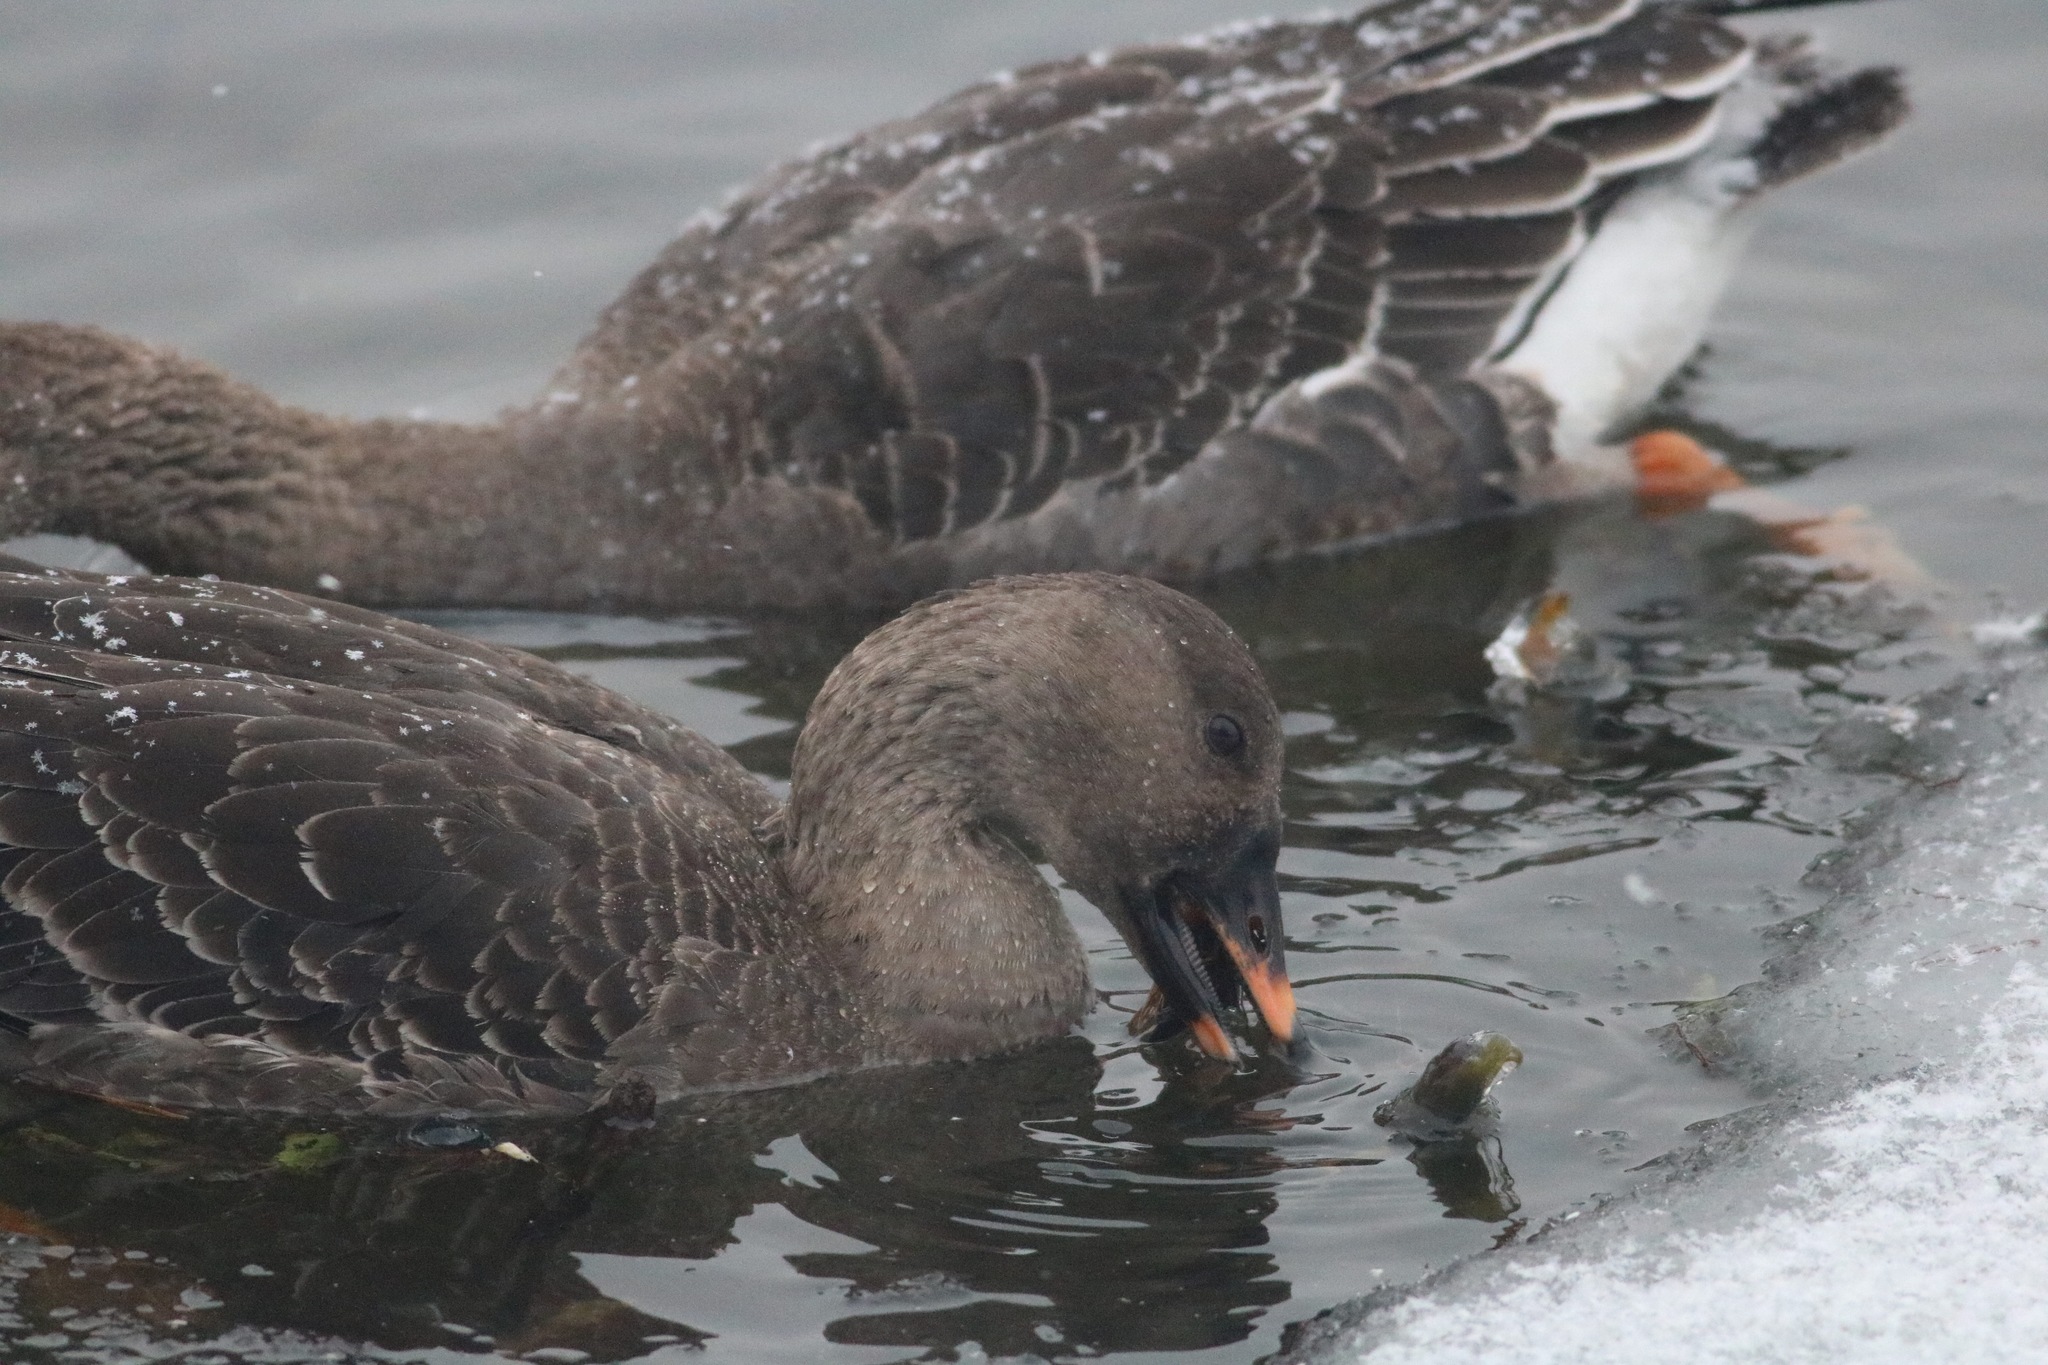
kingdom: Animalia
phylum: Chordata
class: Aves
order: Anseriformes
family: Anatidae
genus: Anser
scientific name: Anser fabalis
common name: Bean goose
